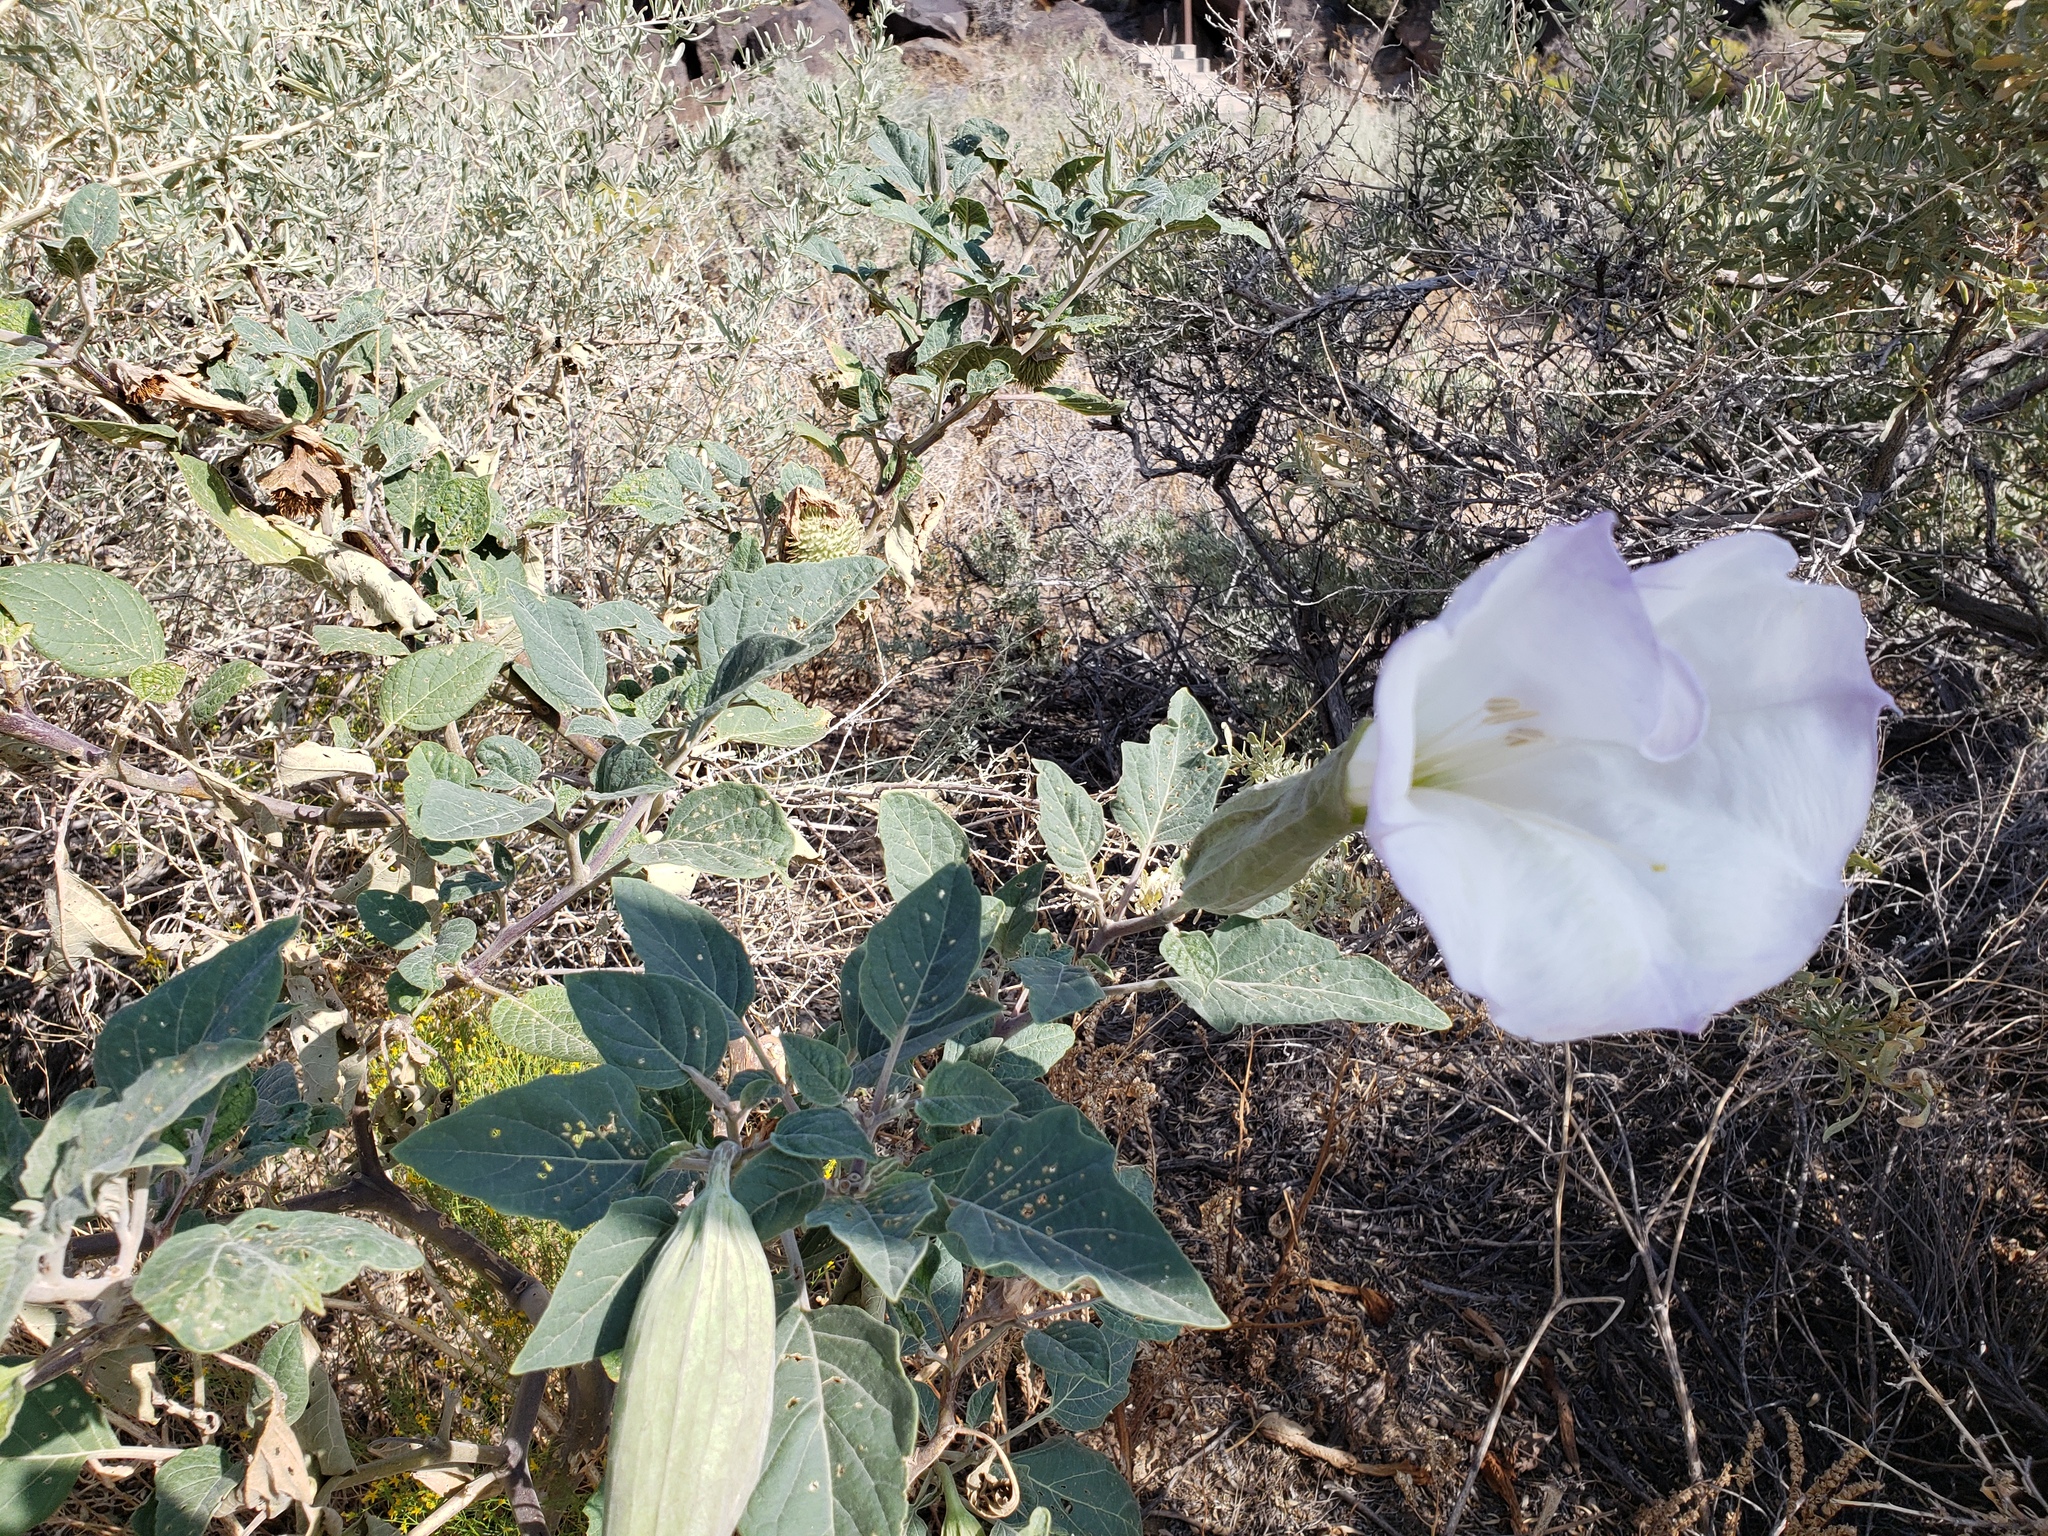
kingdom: Plantae
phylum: Tracheophyta
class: Magnoliopsida
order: Solanales
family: Solanaceae
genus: Datura
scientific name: Datura wrightii
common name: Sacred thorn-apple
